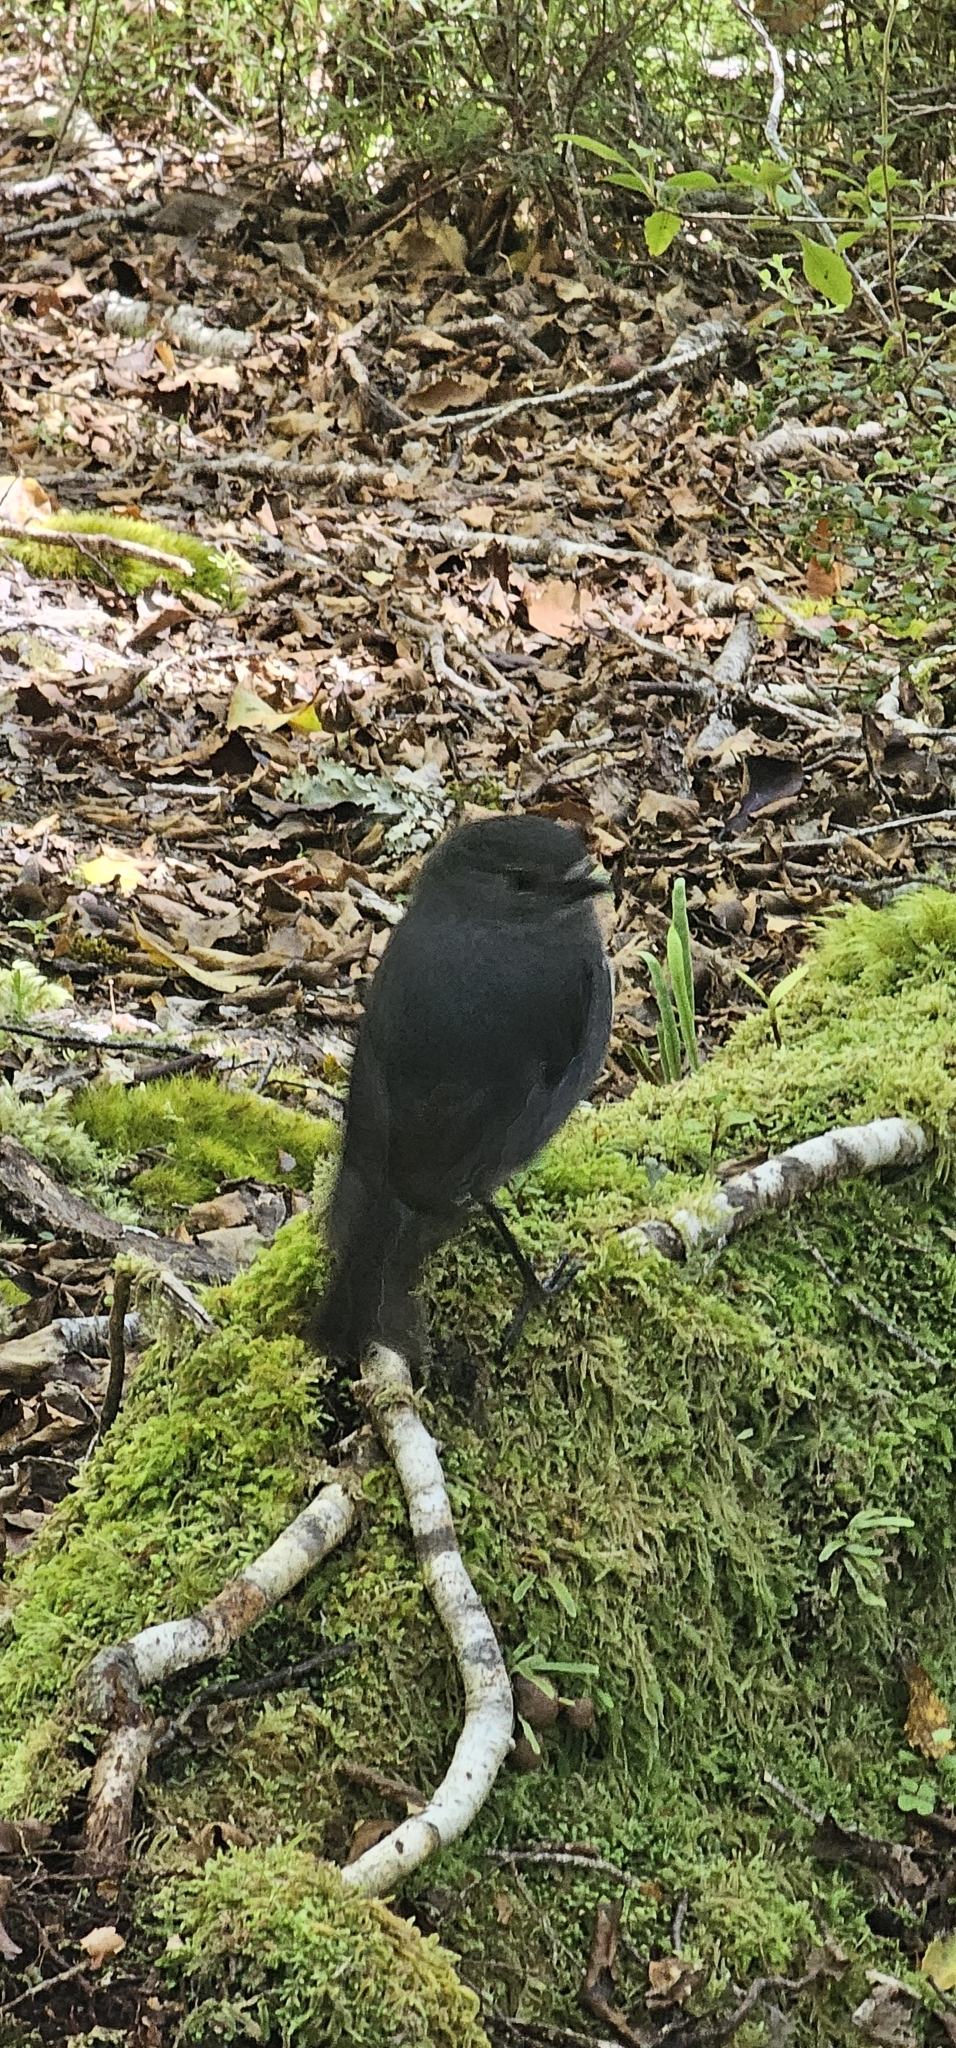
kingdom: Animalia
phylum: Chordata
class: Aves
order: Passeriformes
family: Petroicidae
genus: Petroica
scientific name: Petroica australis
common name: New zealand robin
